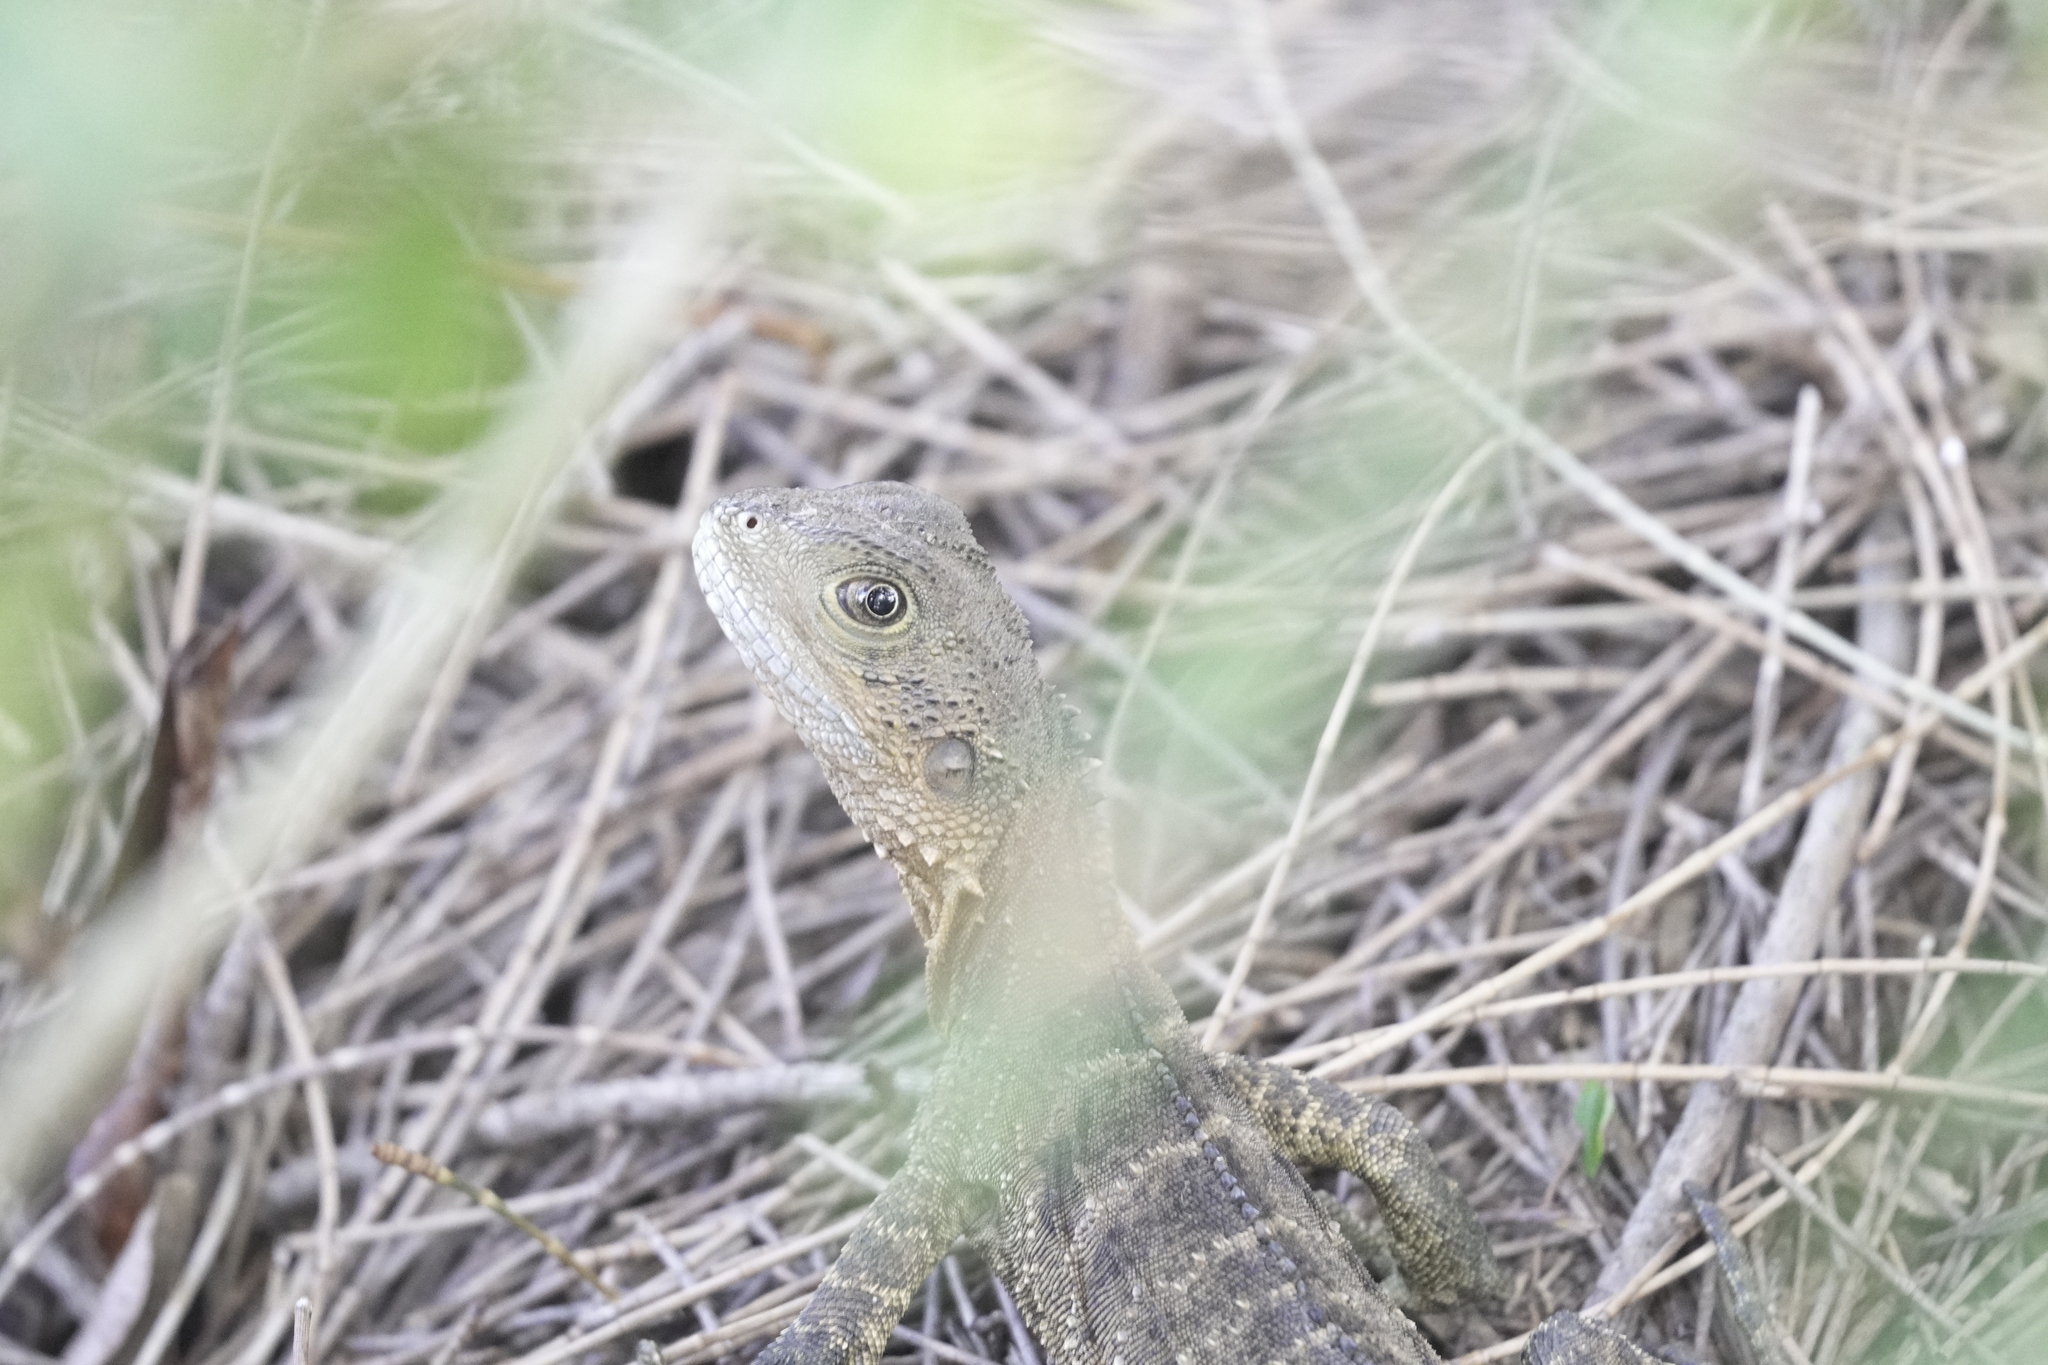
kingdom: Animalia
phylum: Chordata
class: Squamata
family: Agamidae
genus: Intellagama
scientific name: Intellagama lesueurii
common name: Eastern water dragon
